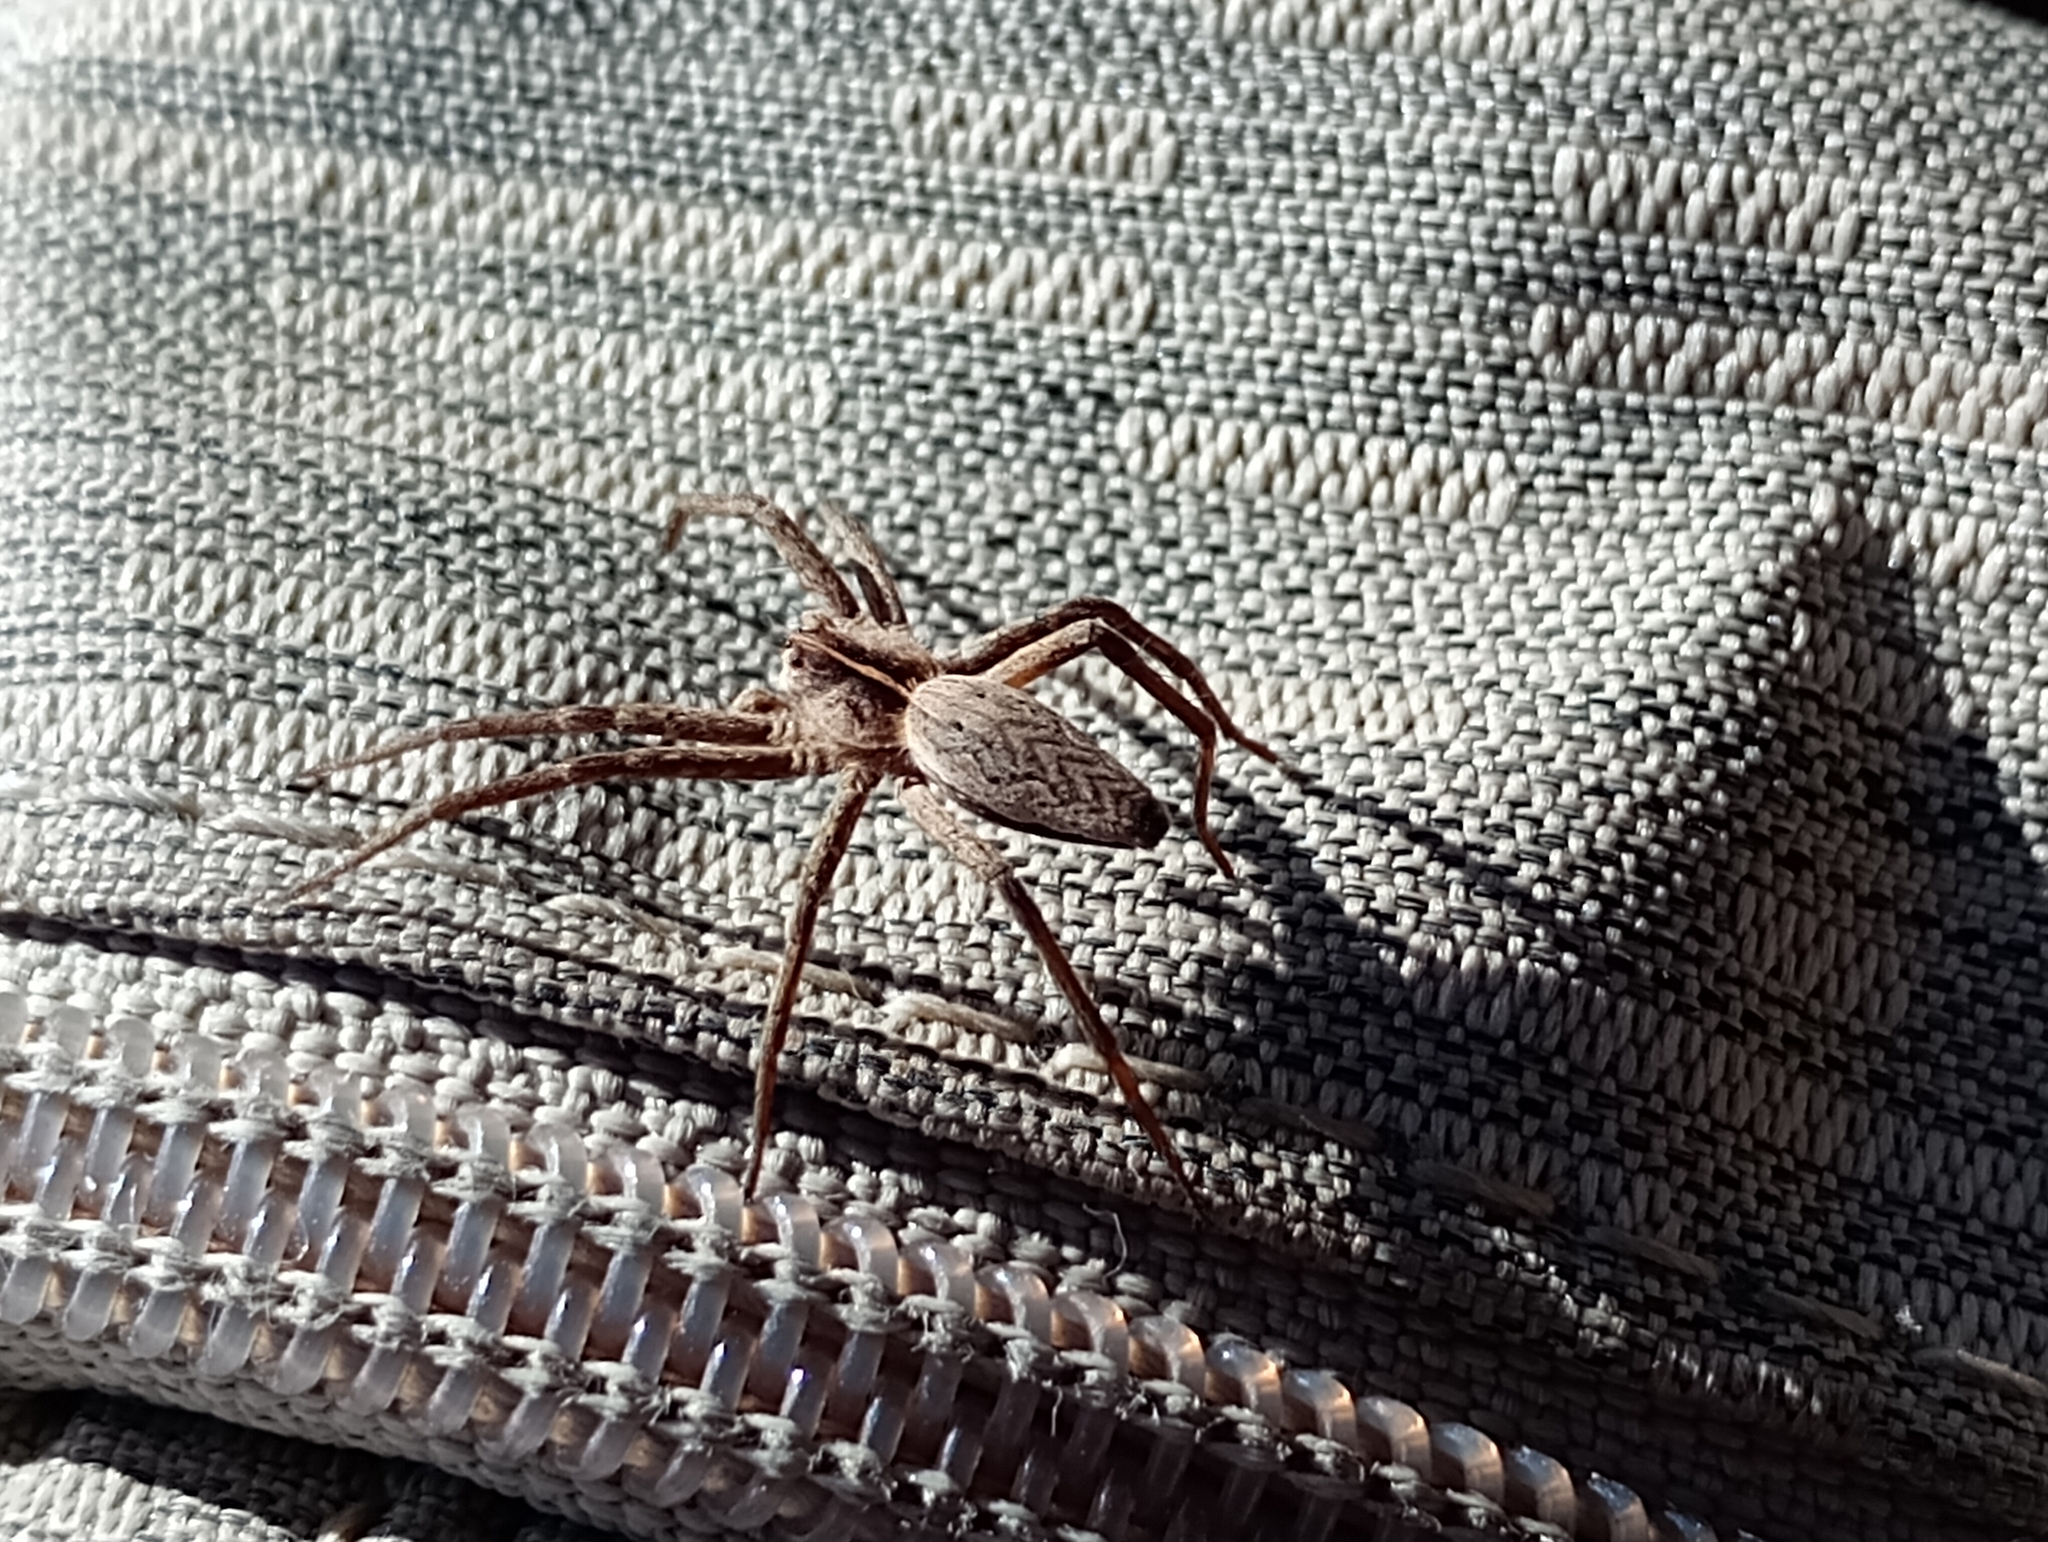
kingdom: Animalia
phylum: Arthropoda
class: Arachnida
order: Araneae
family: Pisauridae
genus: Pisaura
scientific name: Pisaura mirabilis
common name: Tent spider
